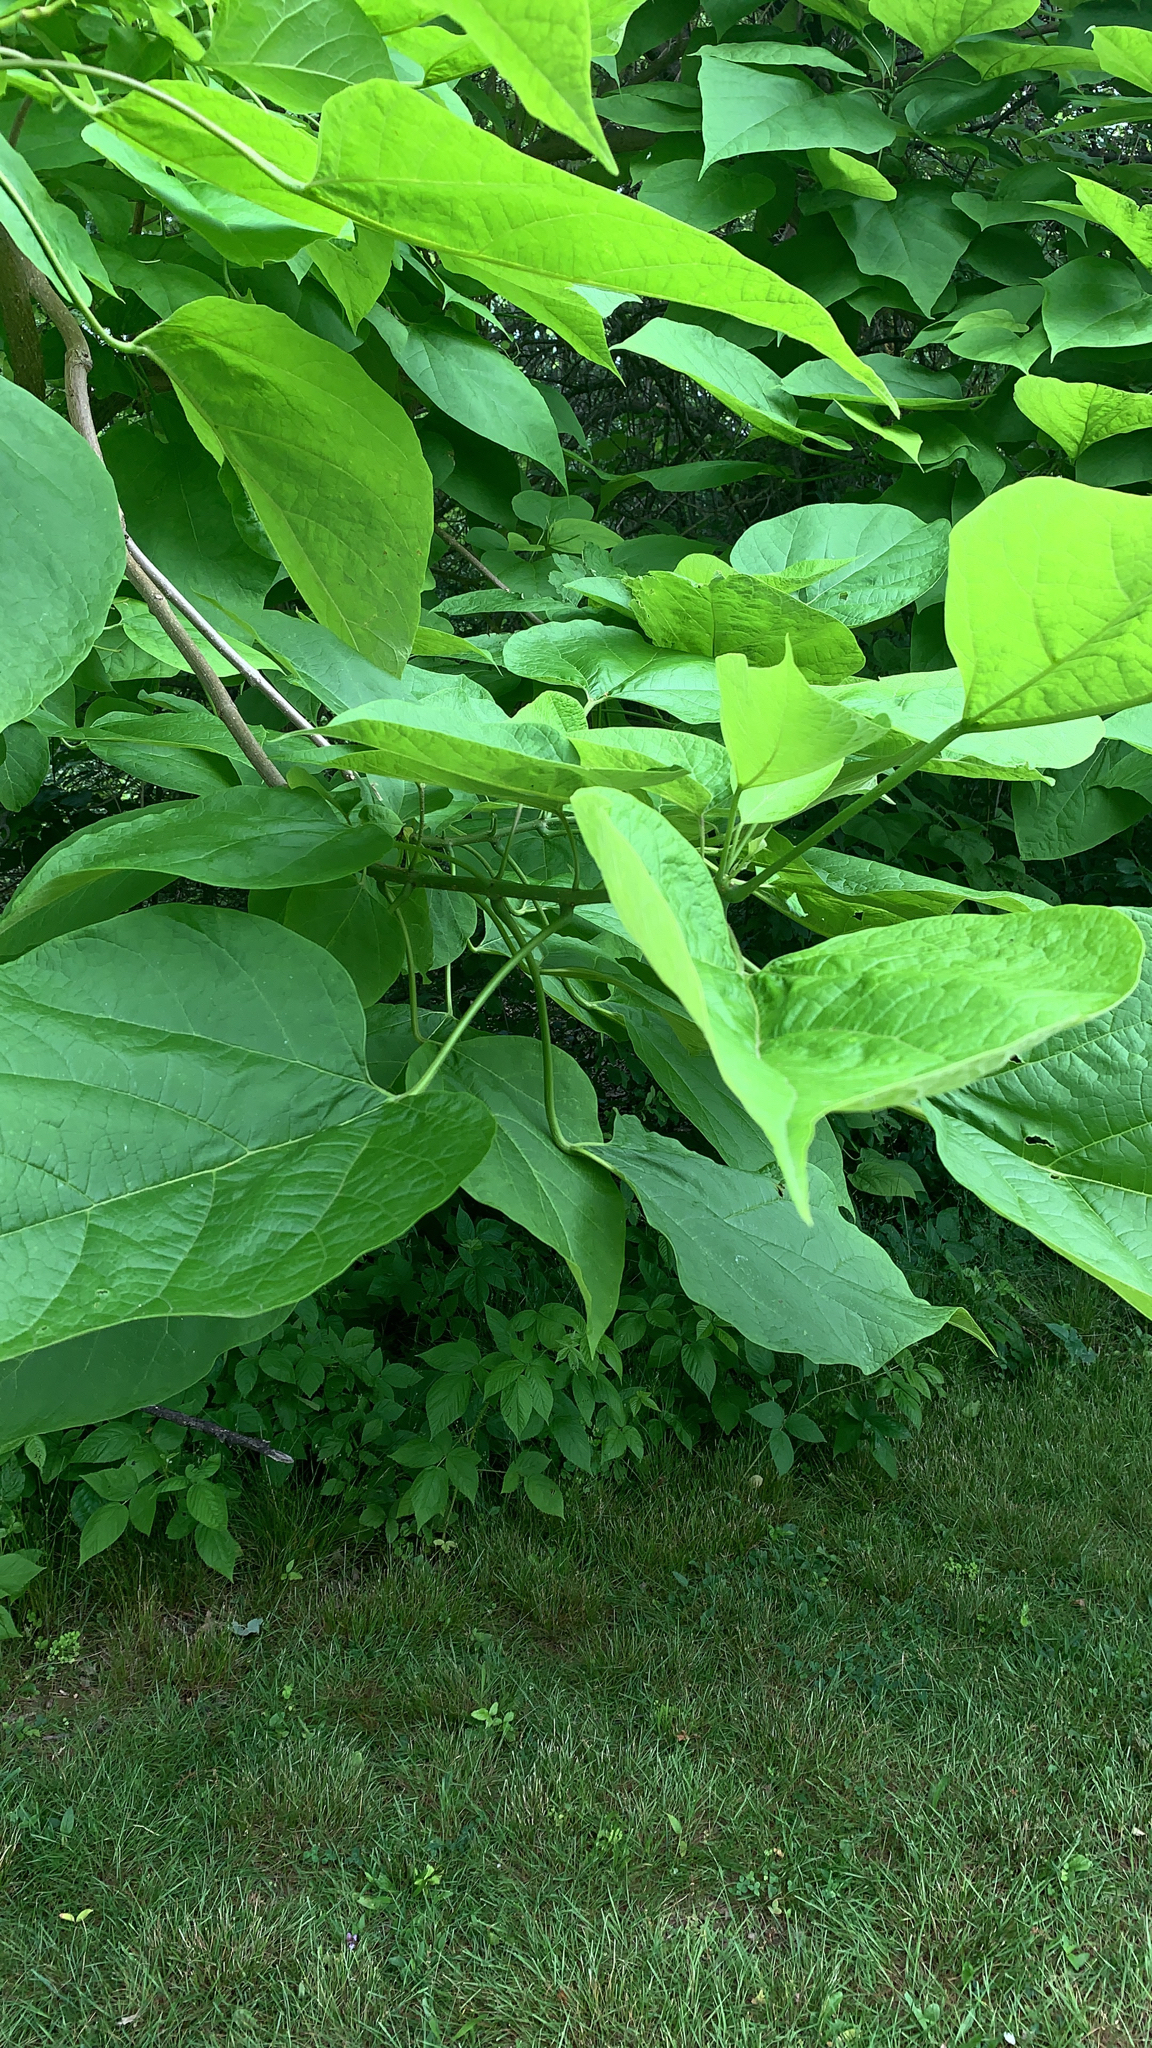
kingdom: Plantae
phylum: Tracheophyta
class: Magnoliopsida
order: Lamiales
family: Bignoniaceae
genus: Catalpa
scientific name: Catalpa speciosa
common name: Northern catalpa
